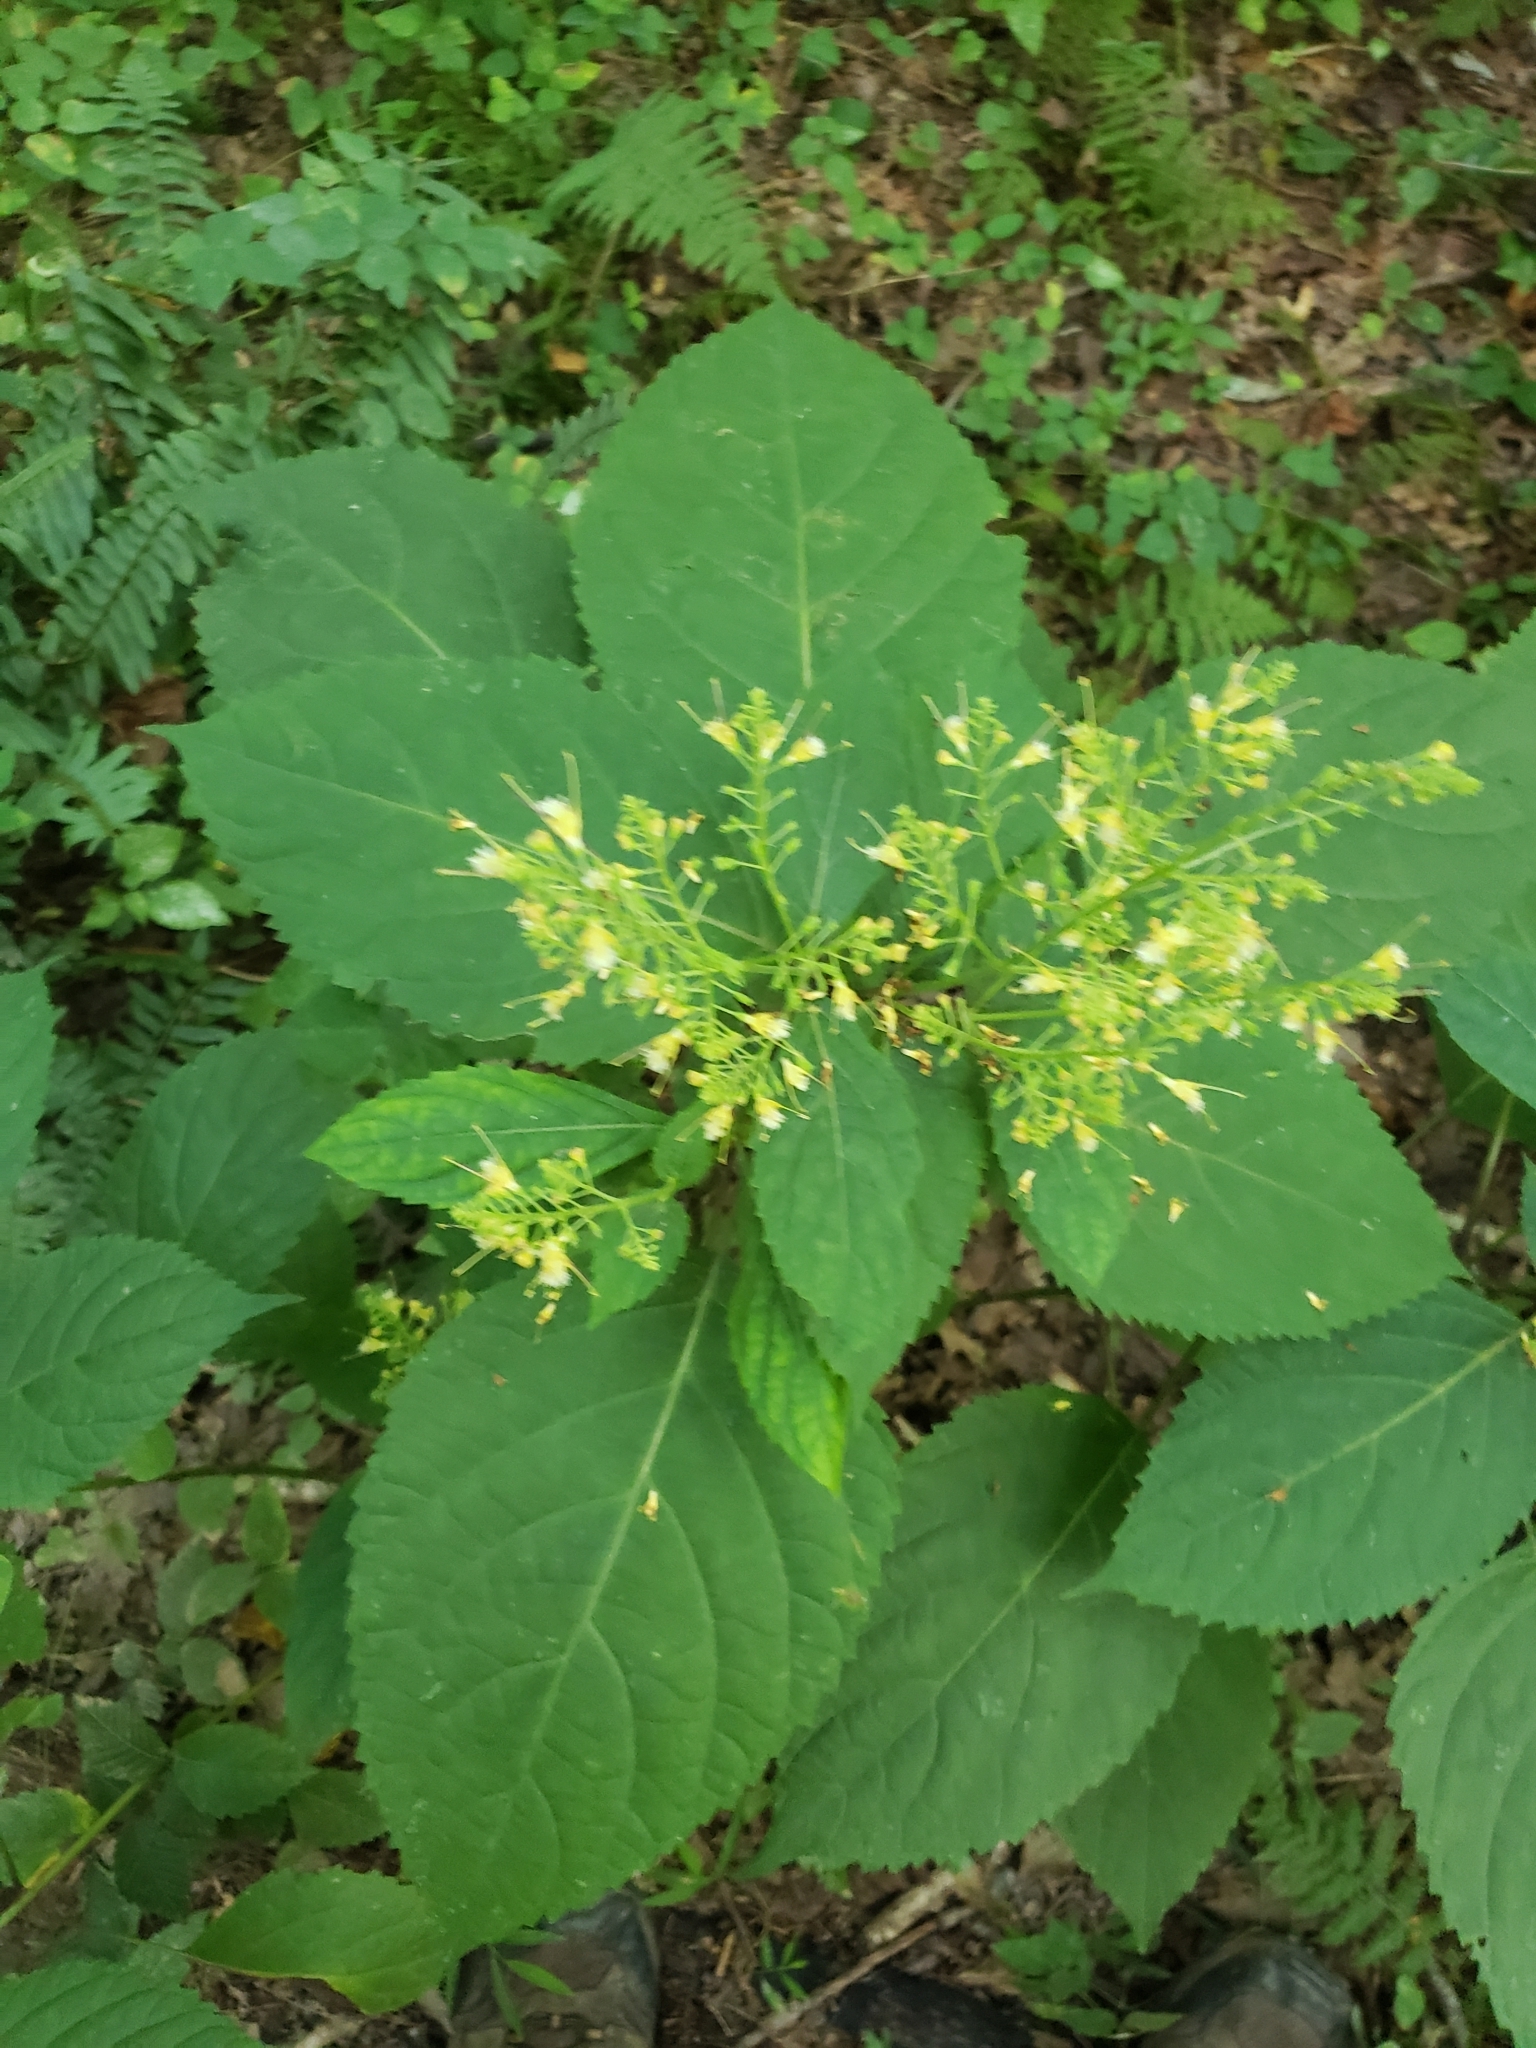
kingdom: Plantae
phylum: Tracheophyta
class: Magnoliopsida
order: Lamiales
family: Lamiaceae
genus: Collinsonia
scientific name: Collinsonia canadensis
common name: Northern horsebalm
